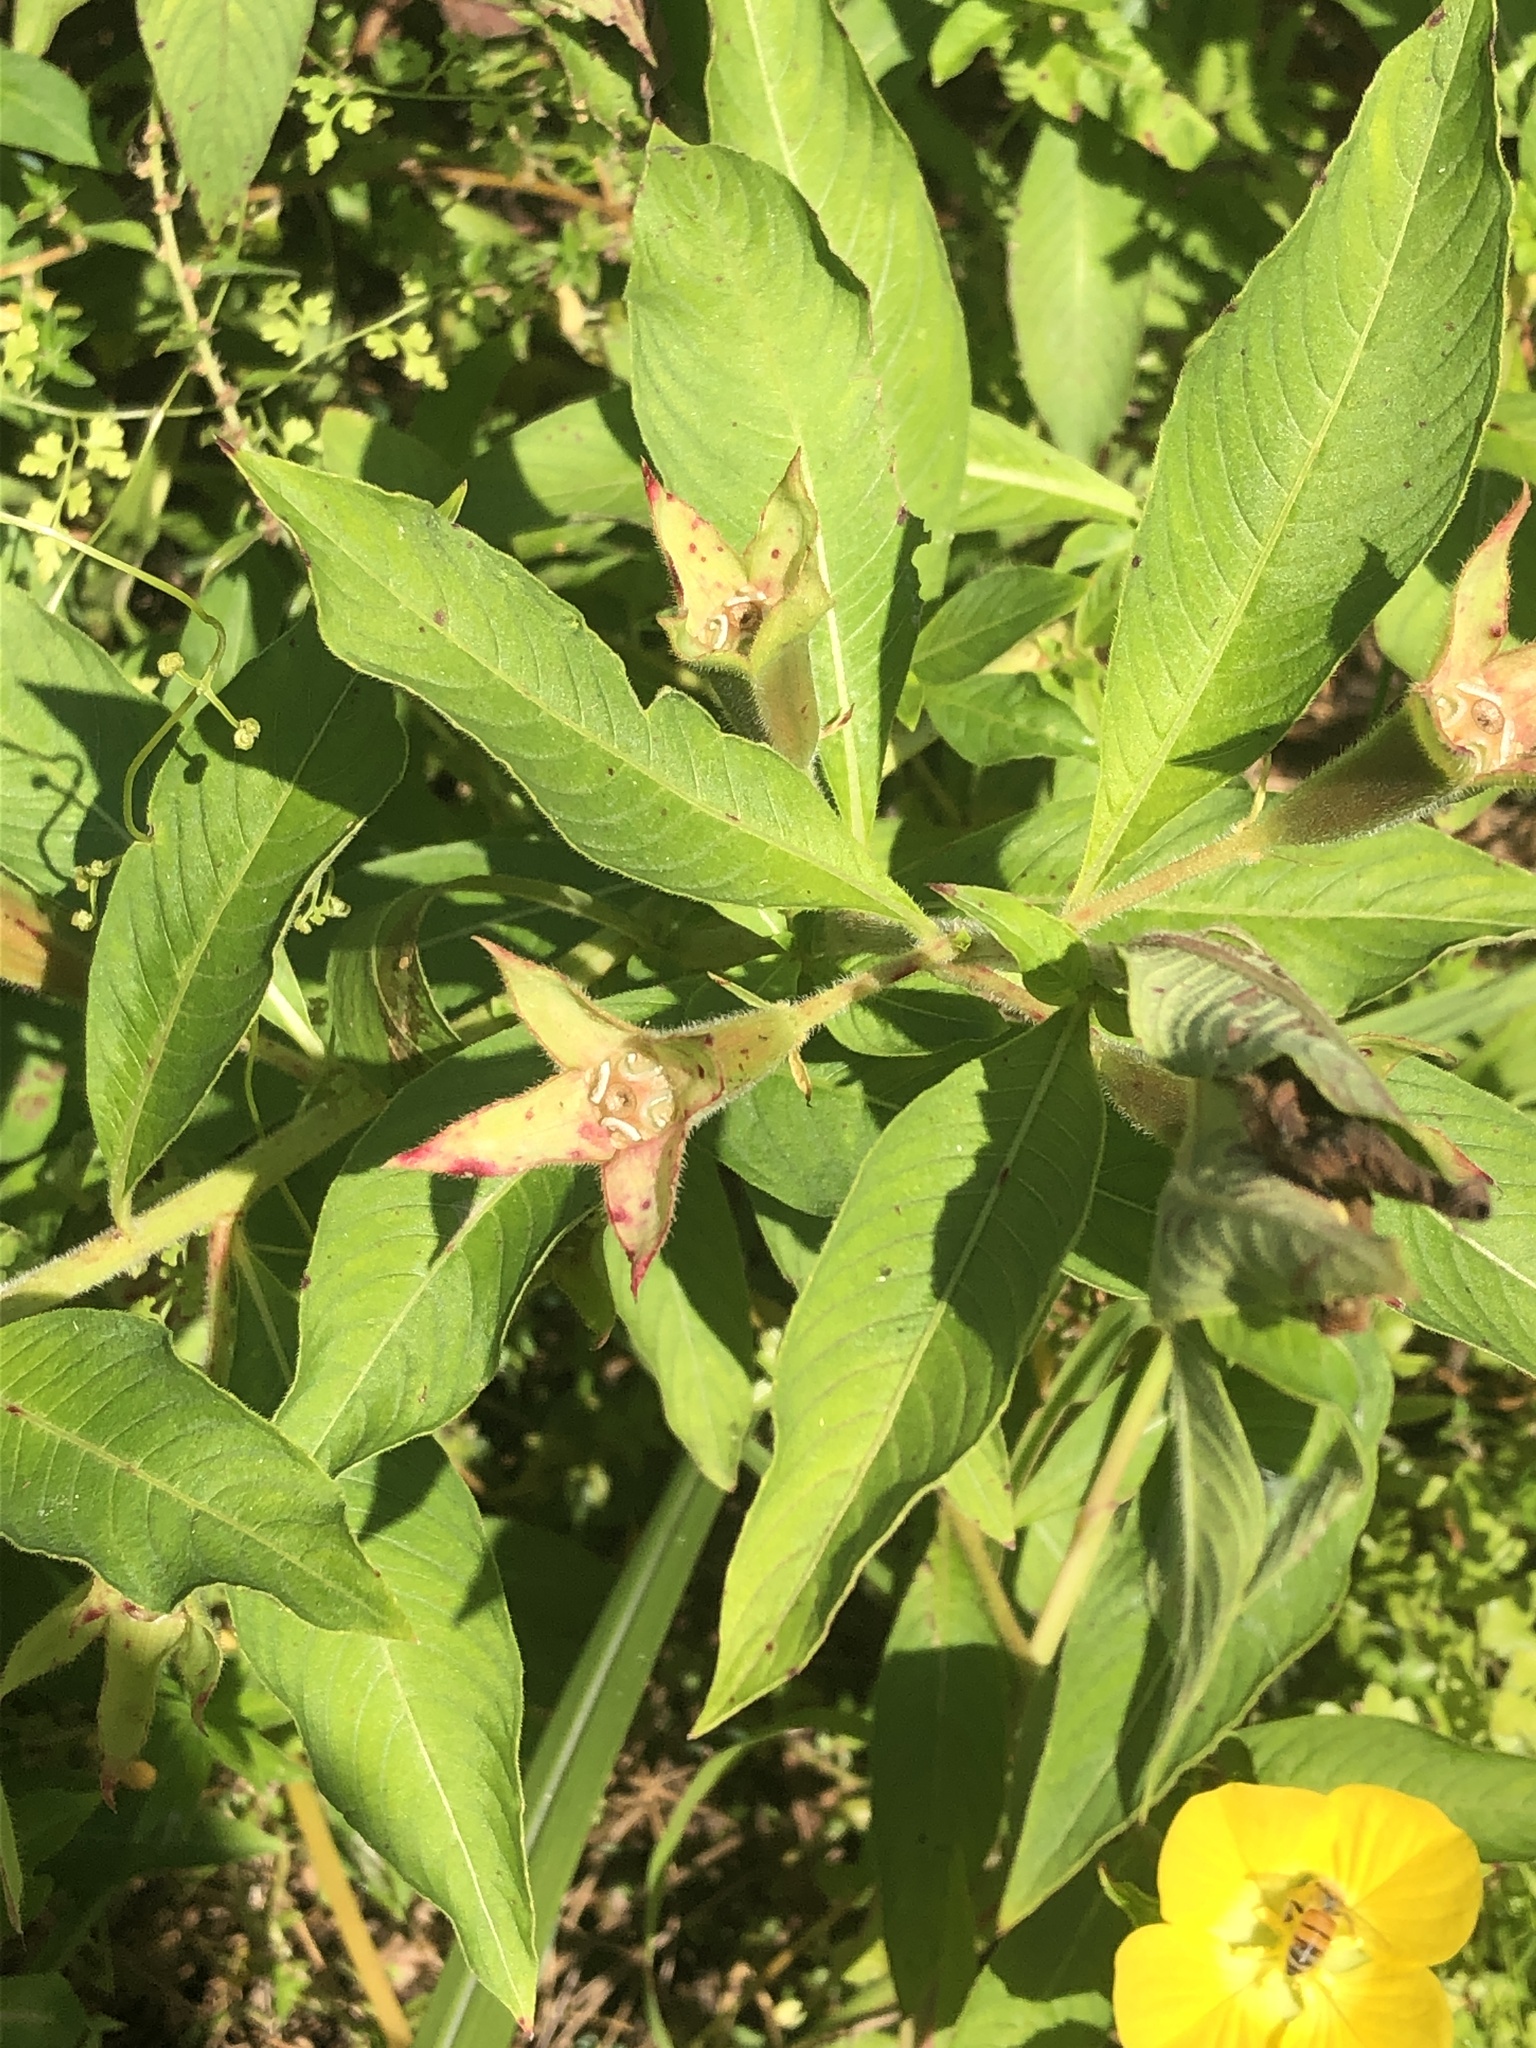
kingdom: Plantae
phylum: Tracheophyta
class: Magnoliopsida
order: Myrtales
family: Onagraceae
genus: Ludwigia
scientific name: Ludwigia peruviana
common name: Peruvian primrose-willow
